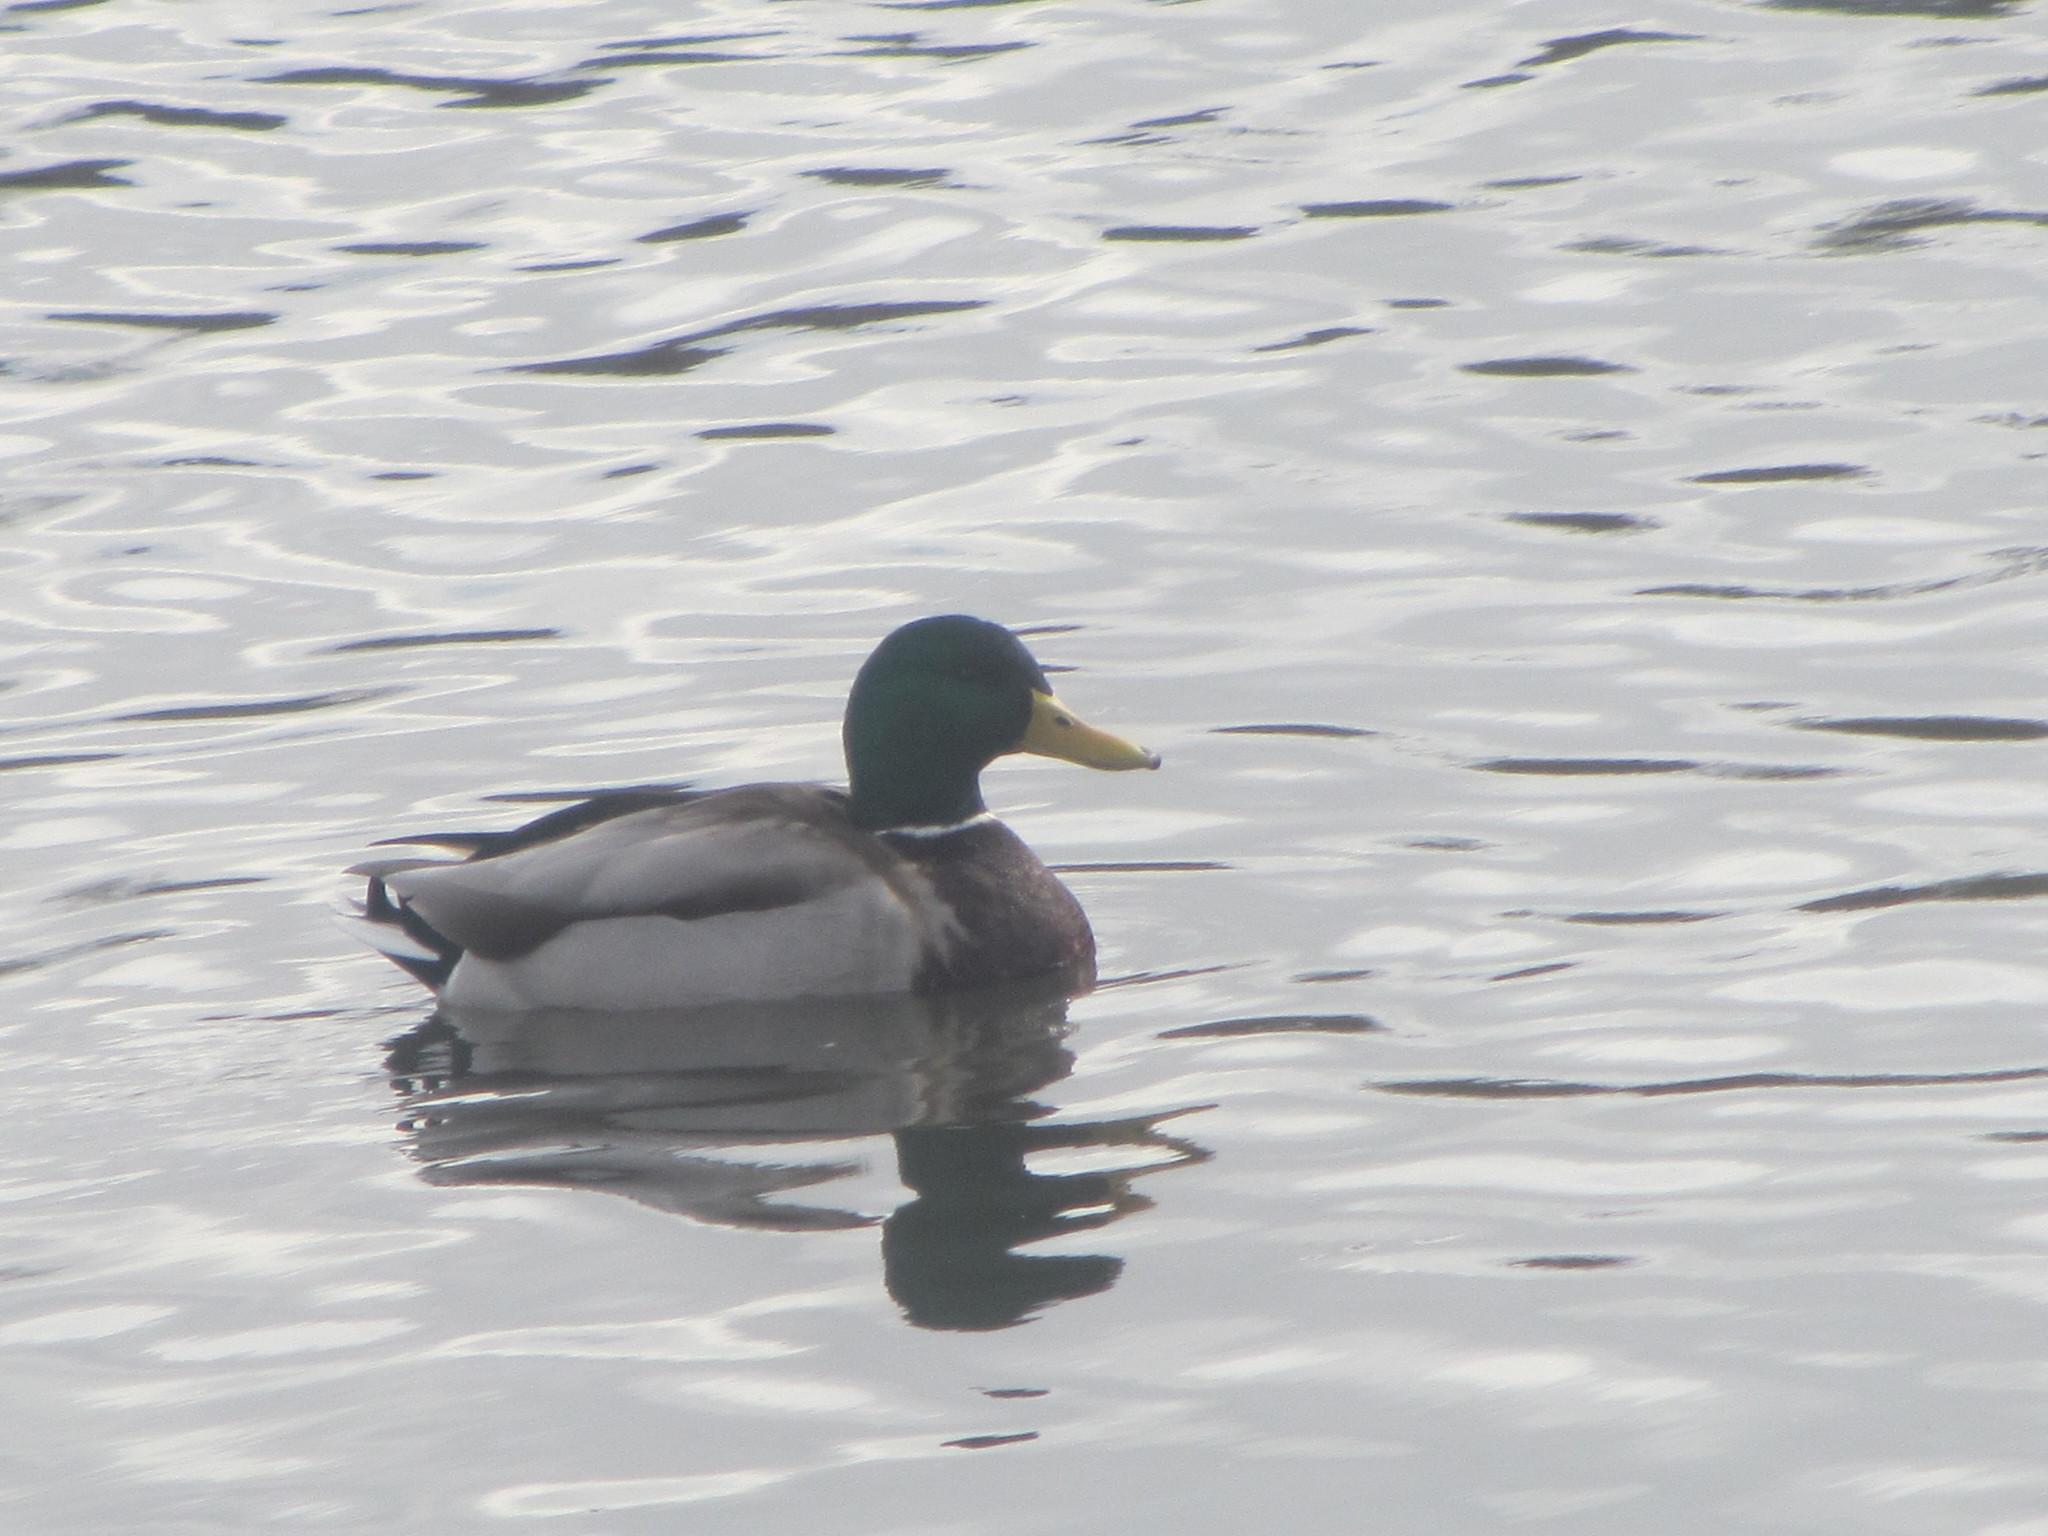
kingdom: Animalia
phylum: Chordata
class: Aves
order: Anseriformes
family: Anatidae
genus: Anas
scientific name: Anas platyrhynchos
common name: Mallard
